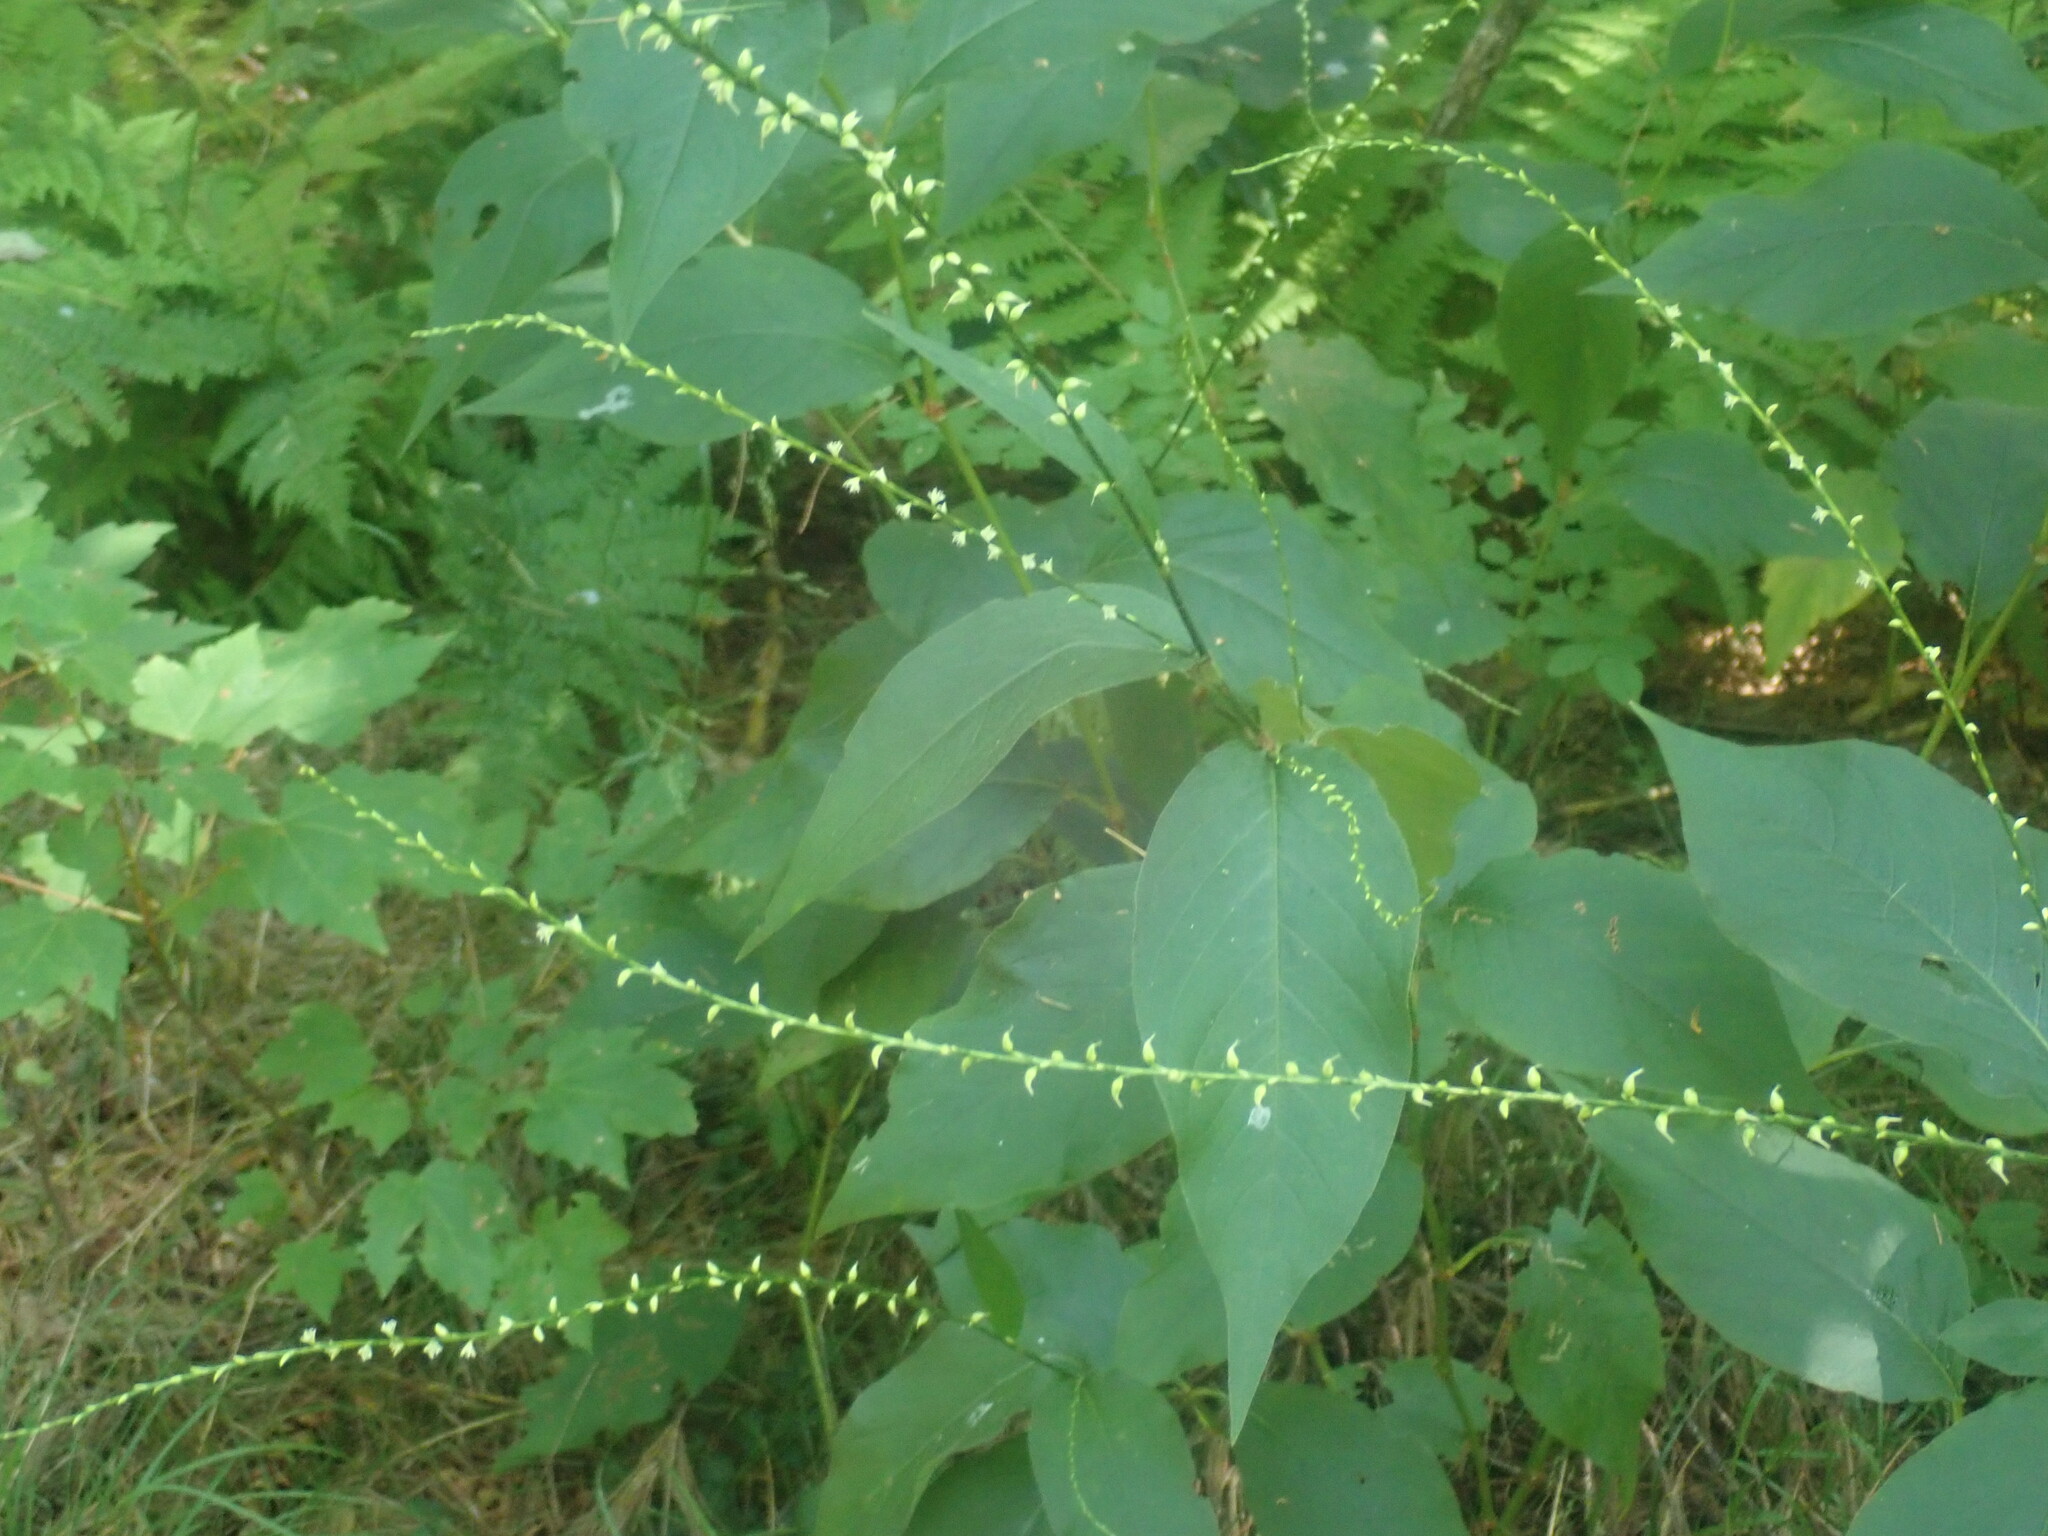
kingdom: Plantae
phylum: Tracheophyta
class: Magnoliopsida
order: Caryophyllales
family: Polygonaceae
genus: Persicaria
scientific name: Persicaria virginiana
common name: Jumpseed
